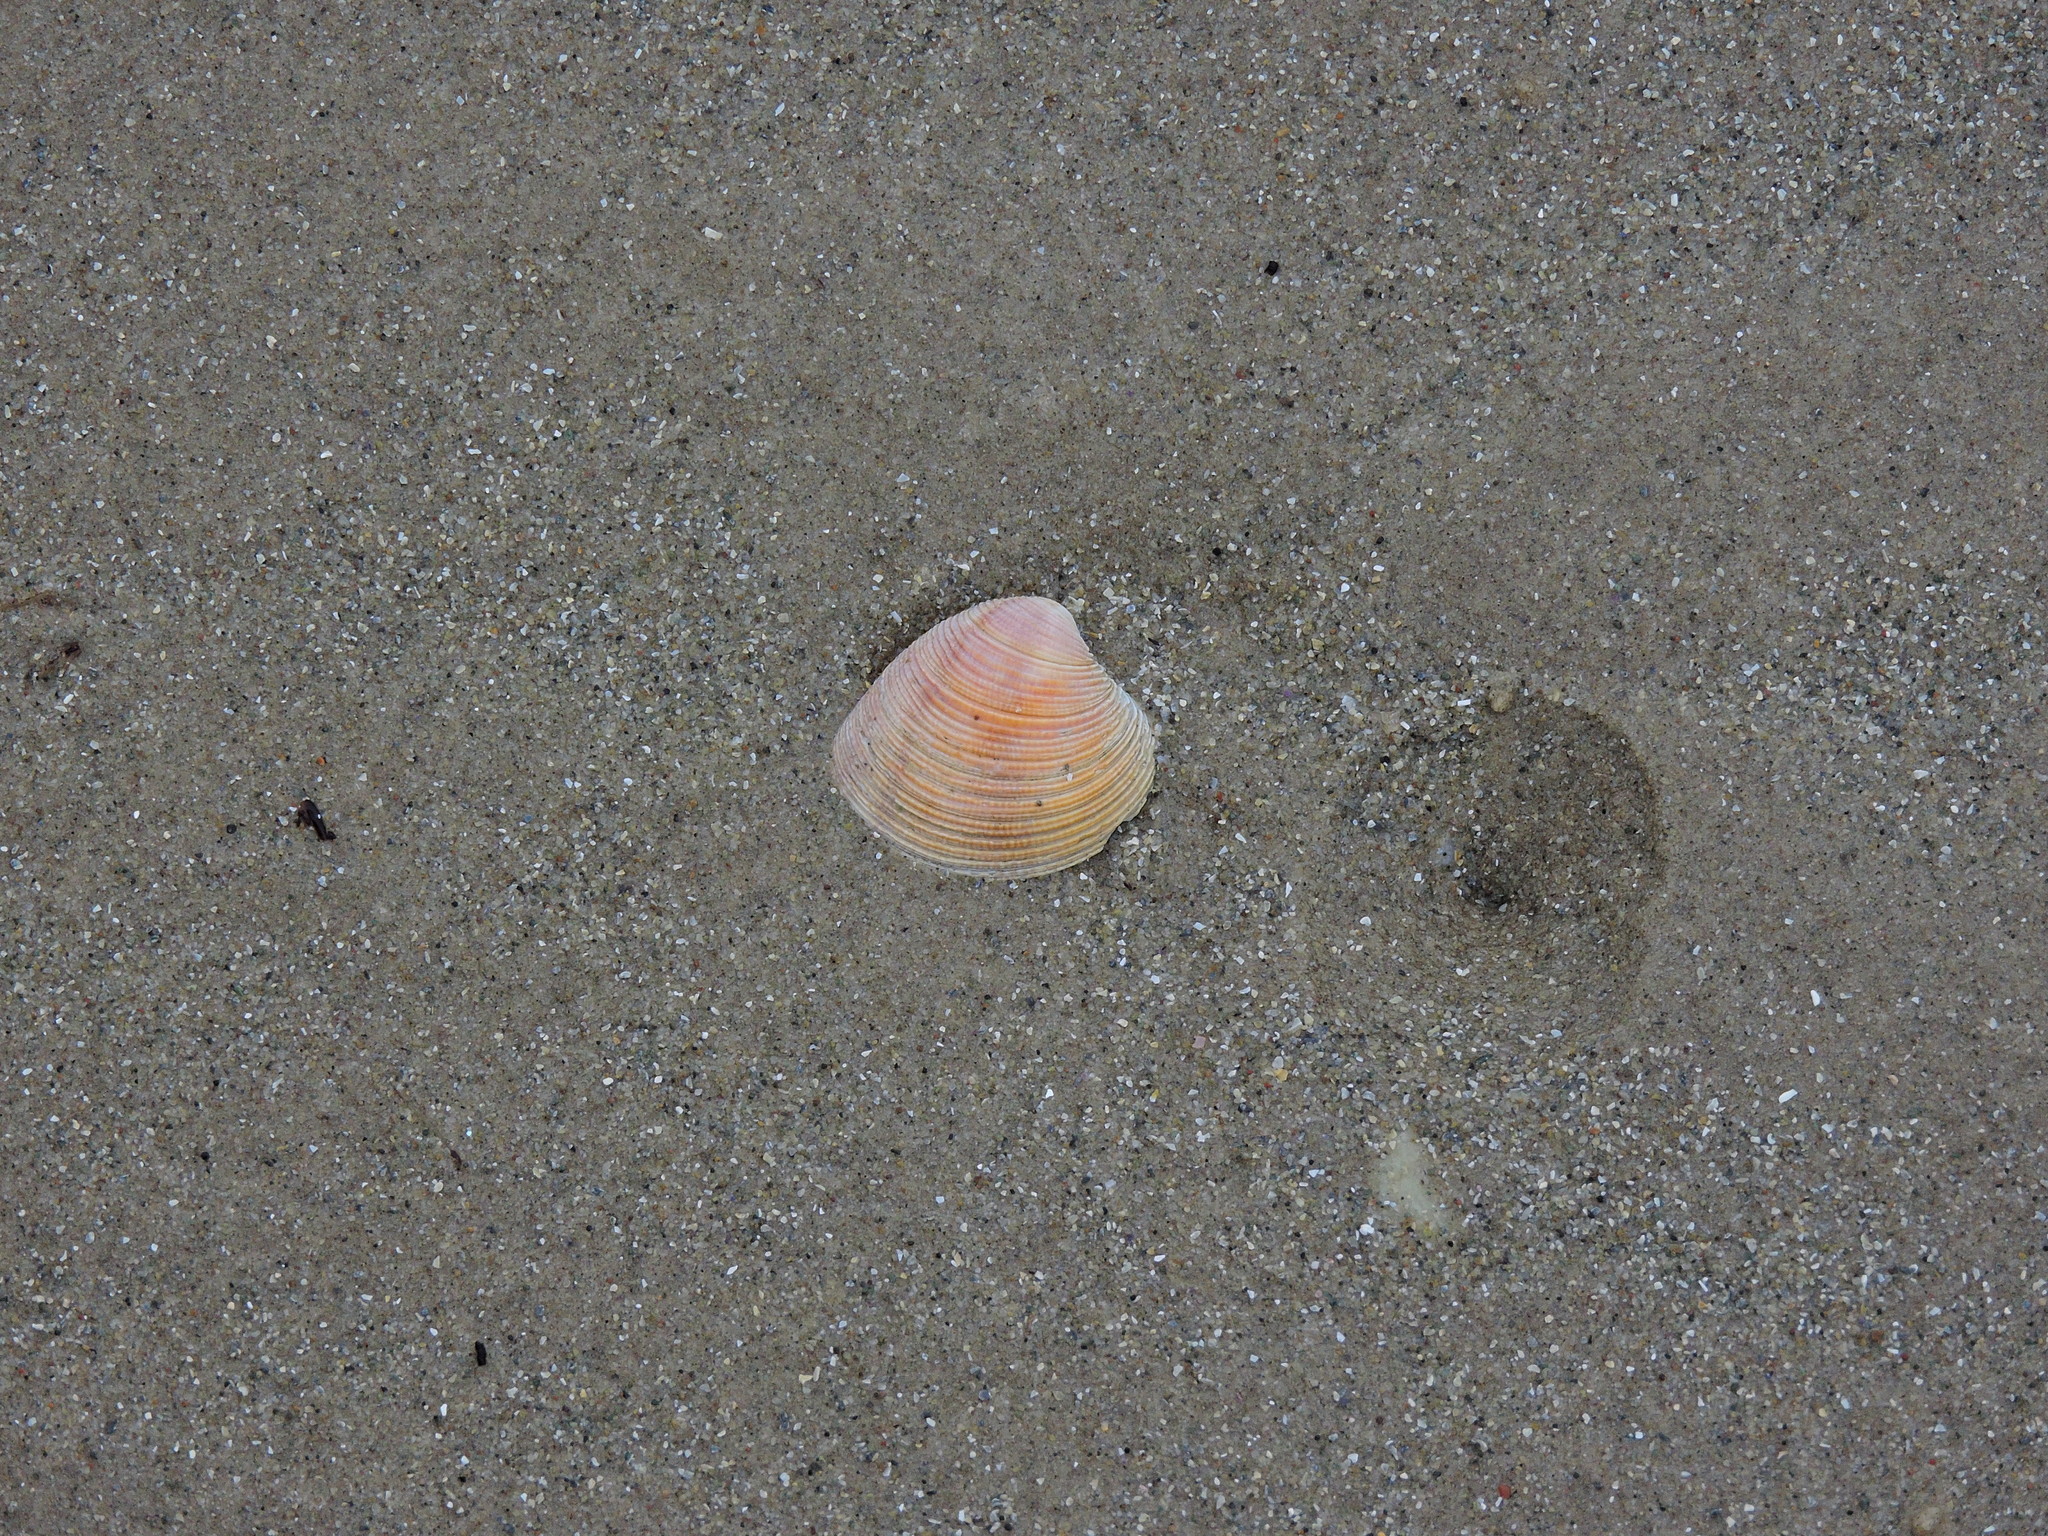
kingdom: Animalia
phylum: Mollusca
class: Bivalvia
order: Venerida
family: Veneridae
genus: Chamelea
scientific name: Chamelea striatula
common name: Striped venus
